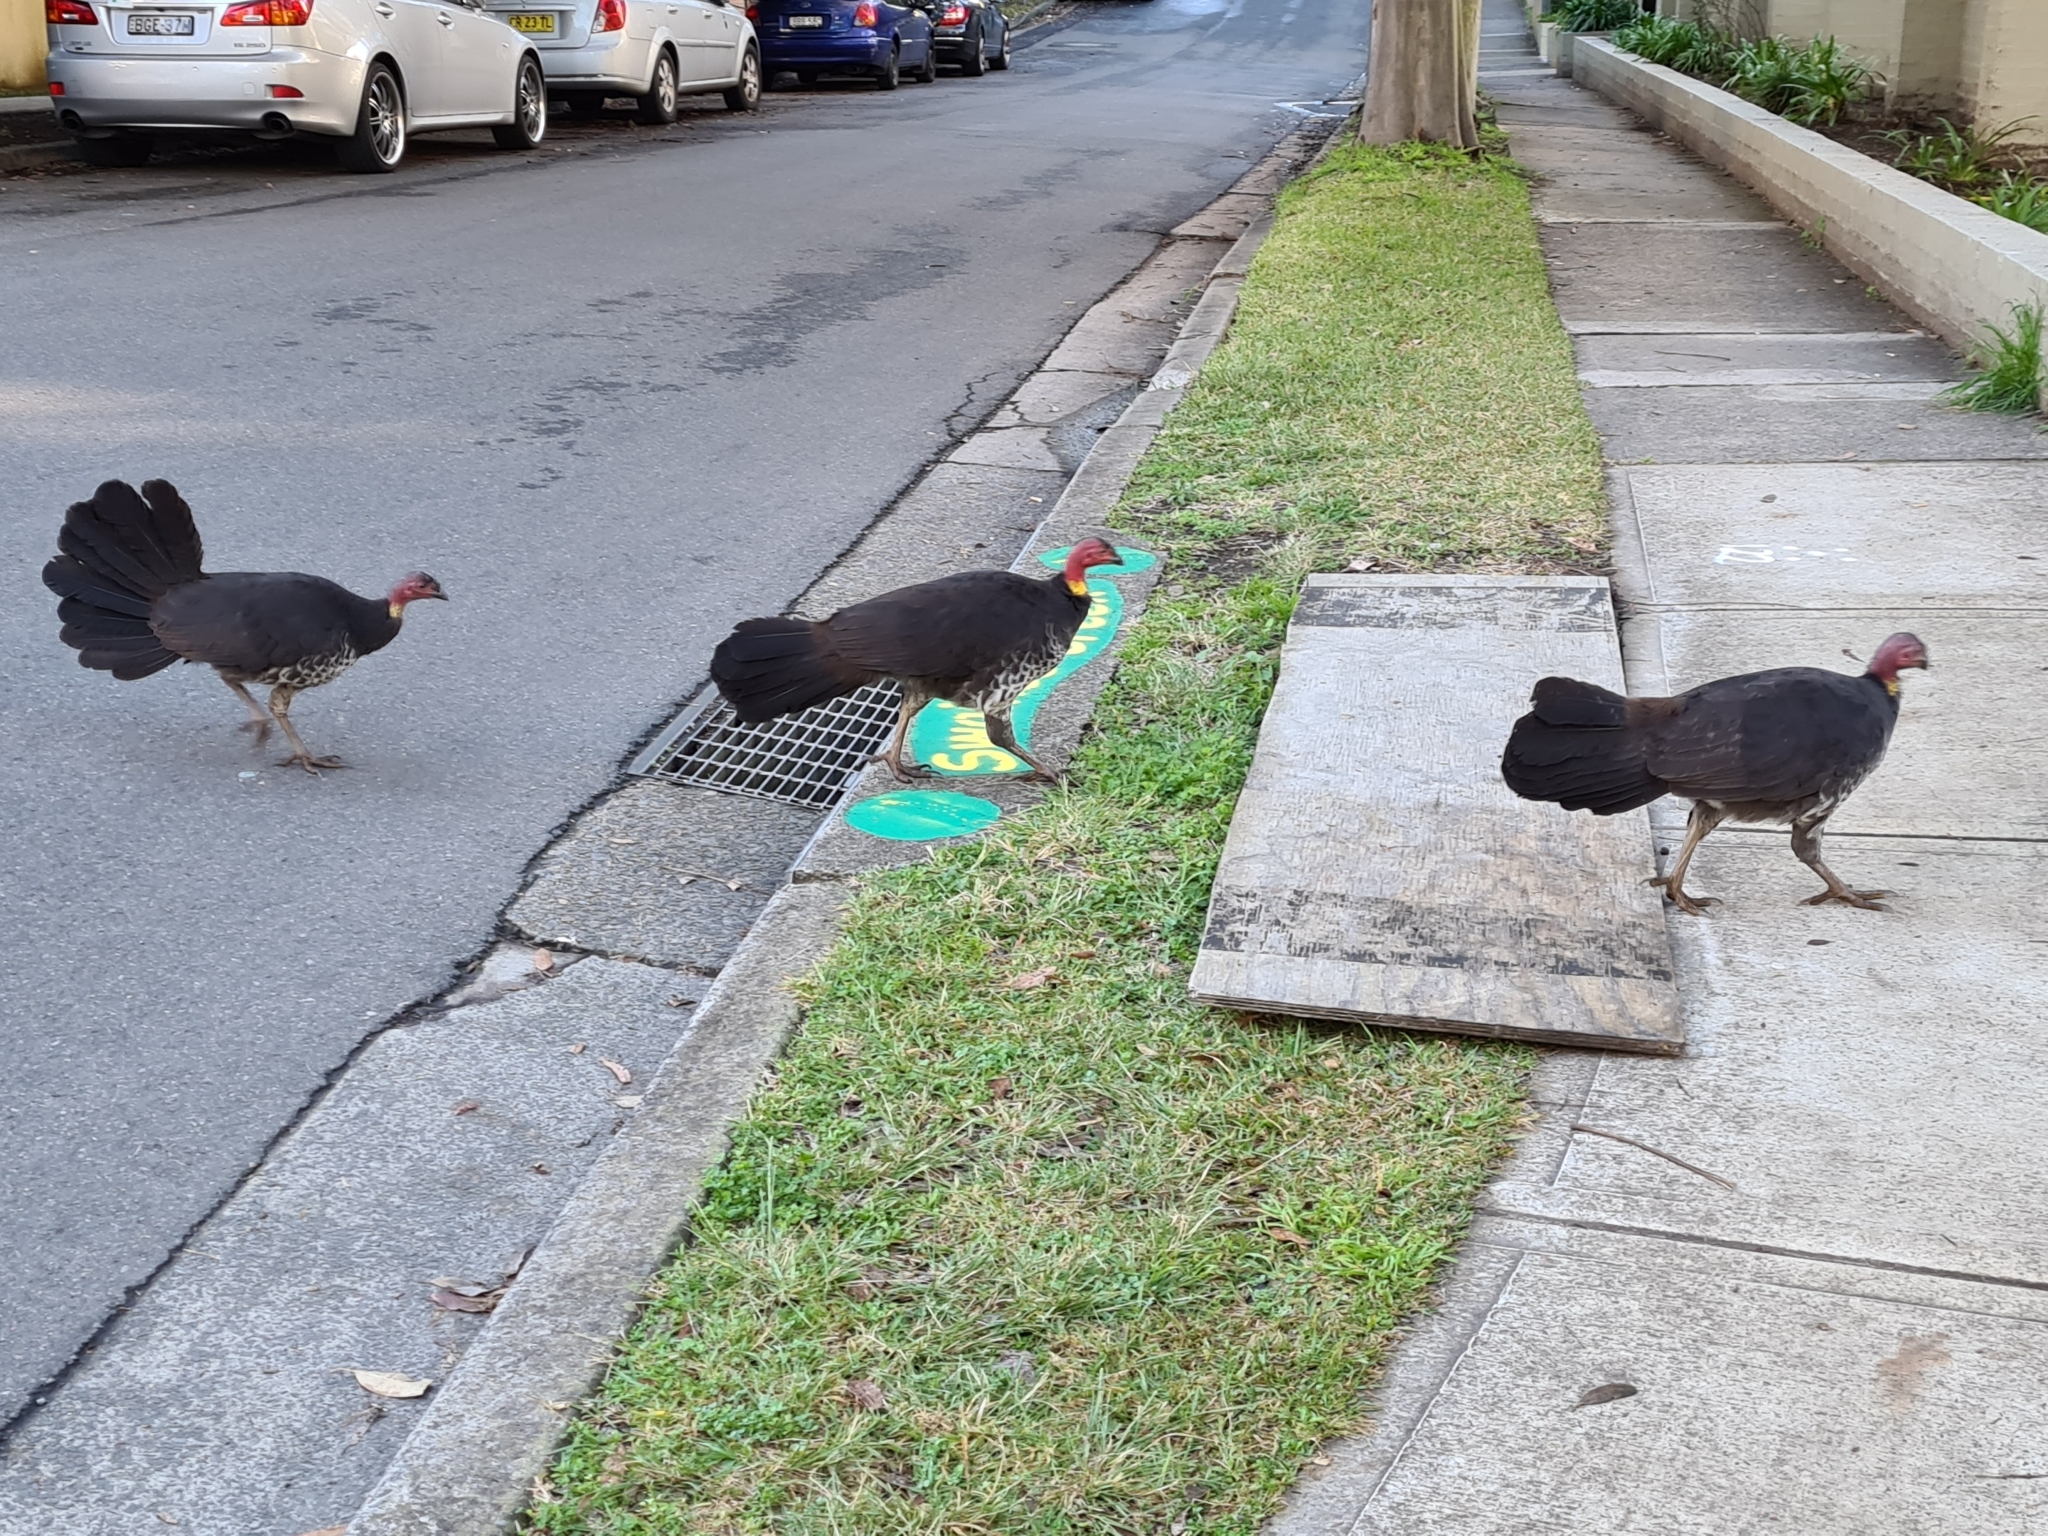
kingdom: Animalia
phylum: Chordata
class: Aves
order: Galliformes
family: Megapodiidae
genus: Alectura
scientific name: Alectura lathami
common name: Australian brushturkey
